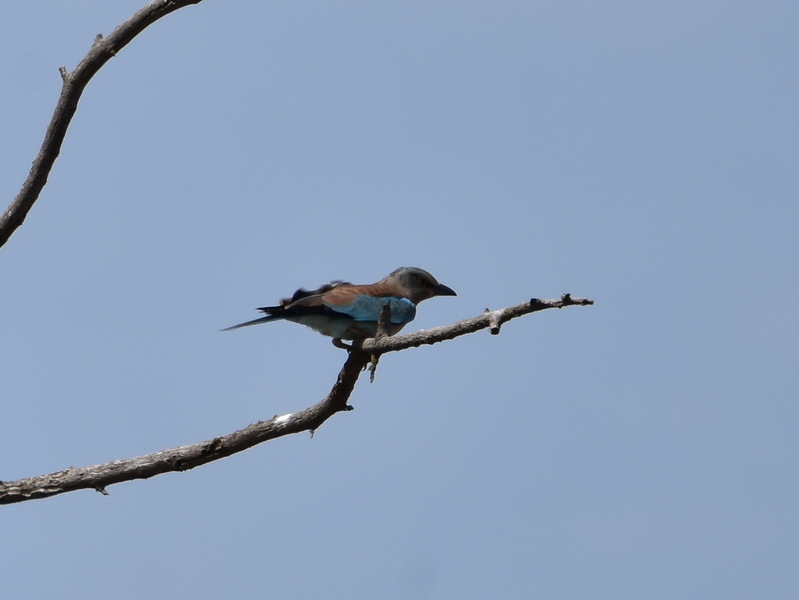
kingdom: Animalia
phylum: Chordata
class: Aves
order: Coraciiformes
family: Coraciidae
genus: Coracias
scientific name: Coracias garrulus
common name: European roller
